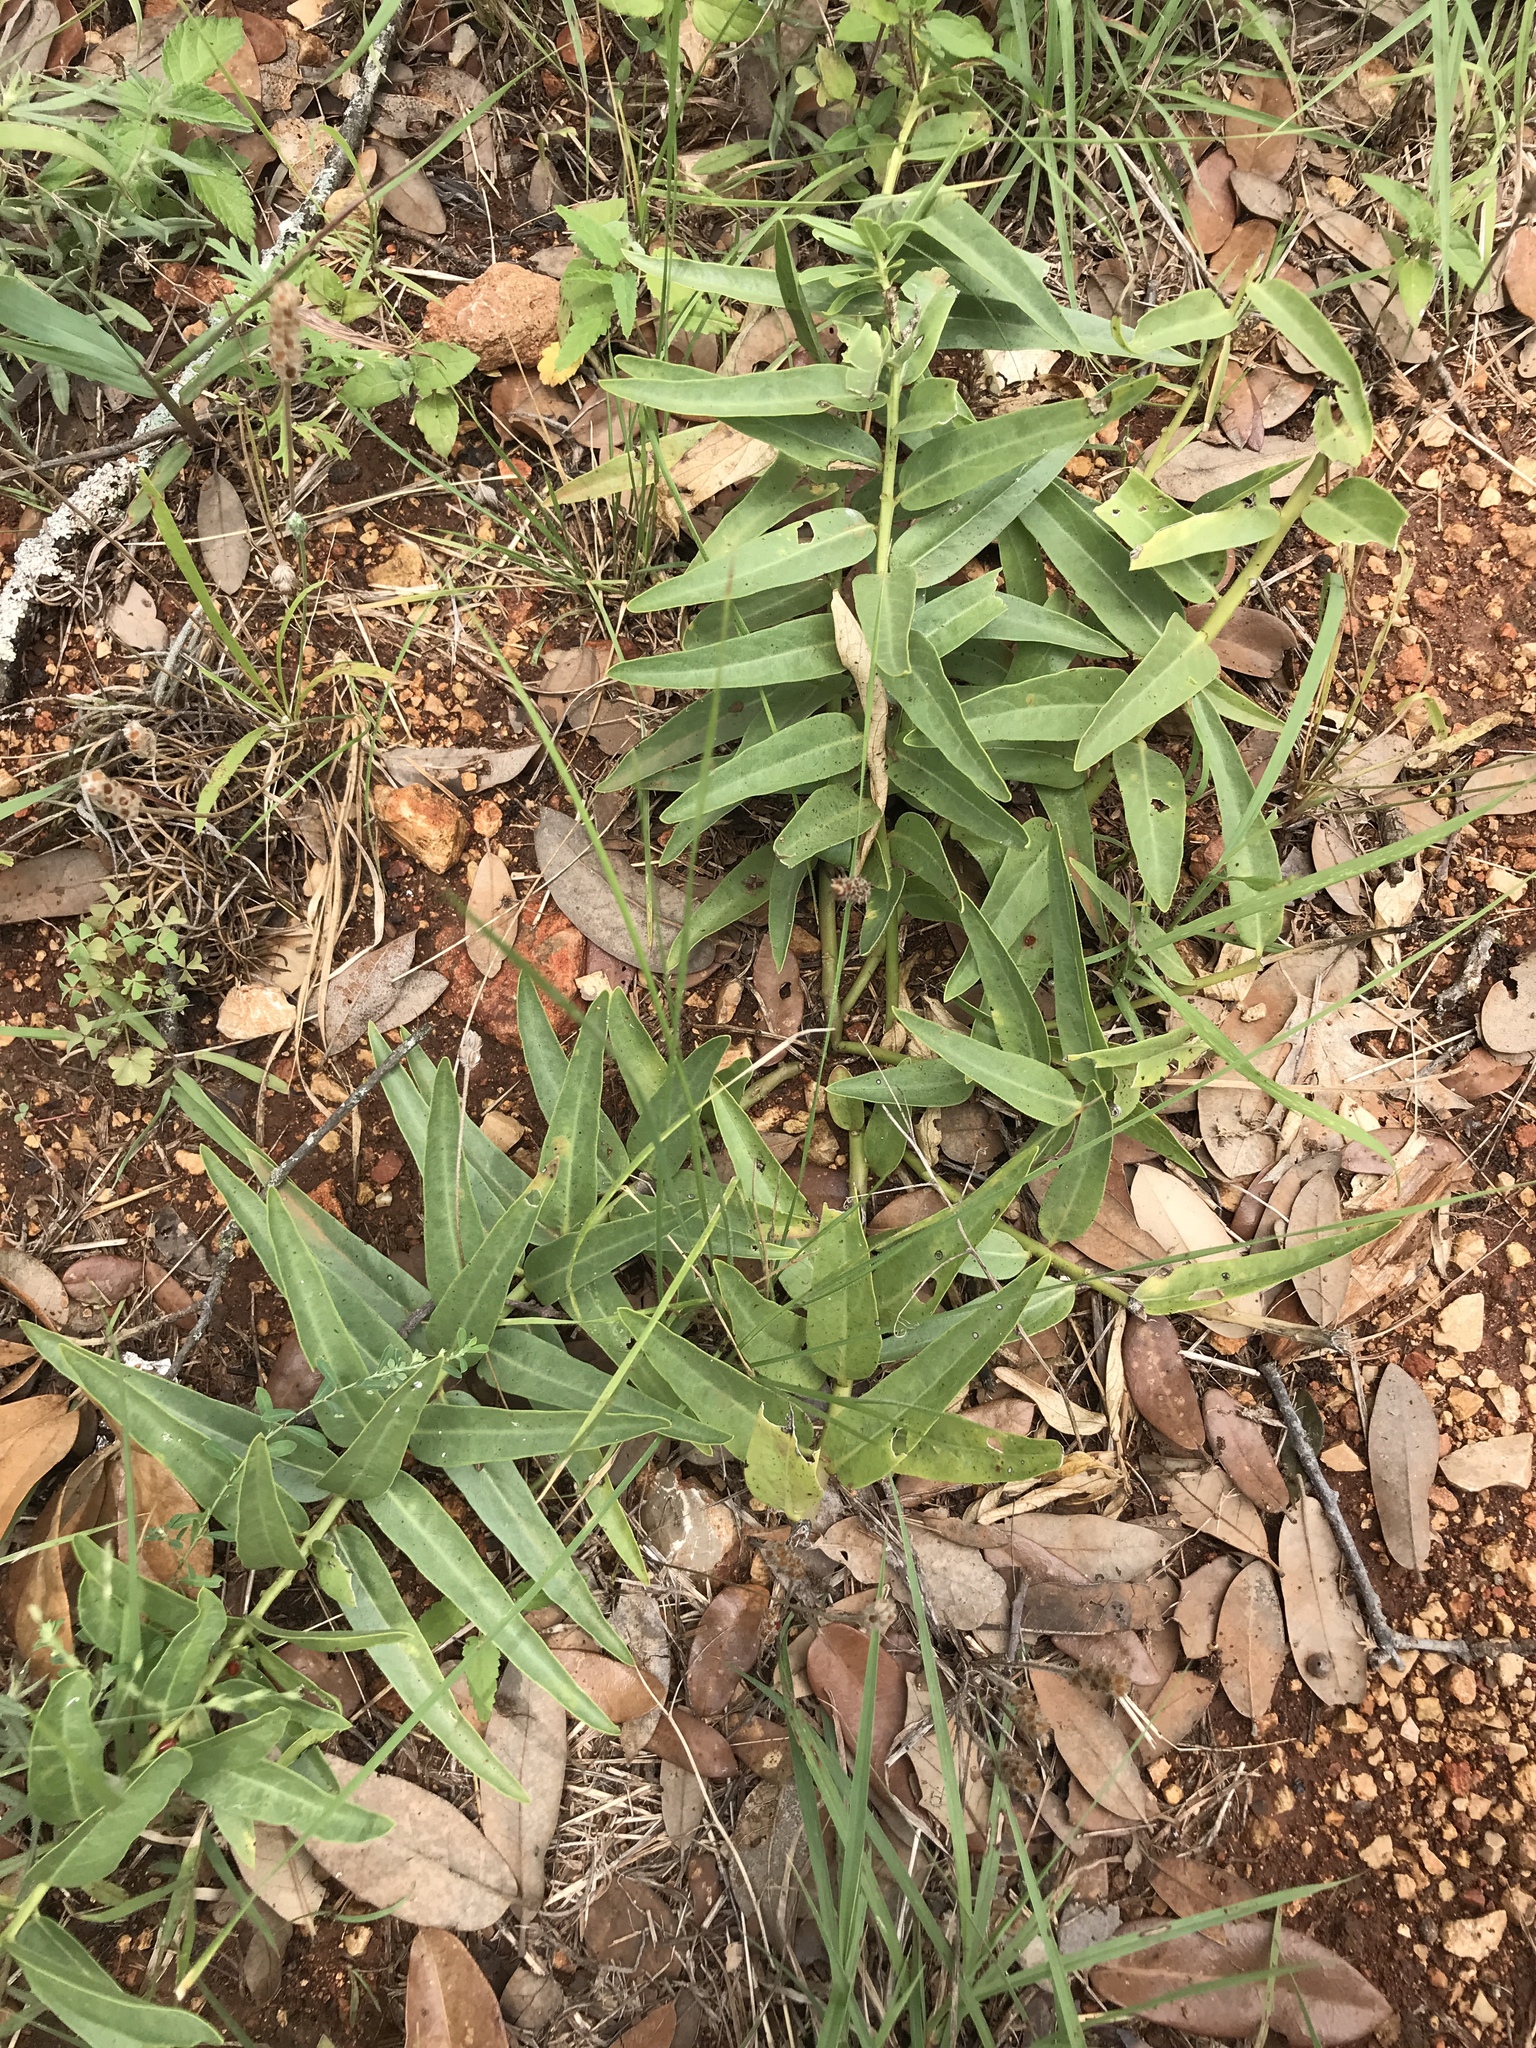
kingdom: Plantae
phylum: Tracheophyta
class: Magnoliopsida
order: Gentianales
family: Apocynaceae
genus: Asclepias
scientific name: Asclepias asperula
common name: Antelope horns
